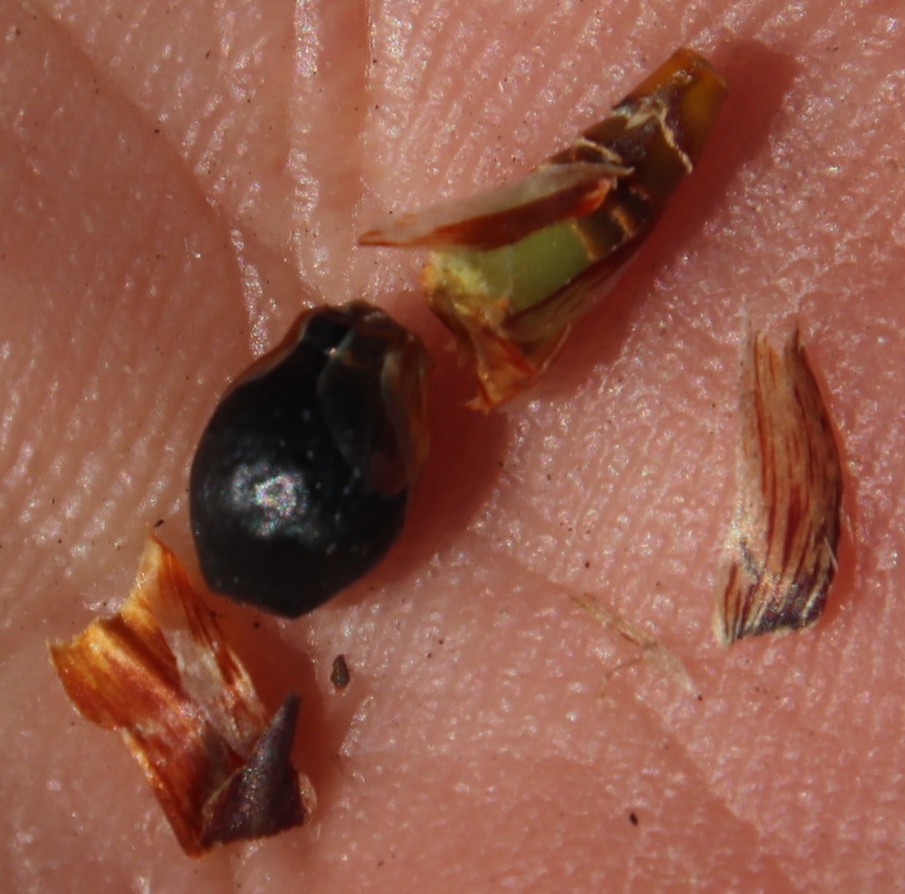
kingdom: Plantae
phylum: Tracheophyta
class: Liliopsida
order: Poales
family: Restionaceae
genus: Willdenowia
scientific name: Willdenowia sulcata
